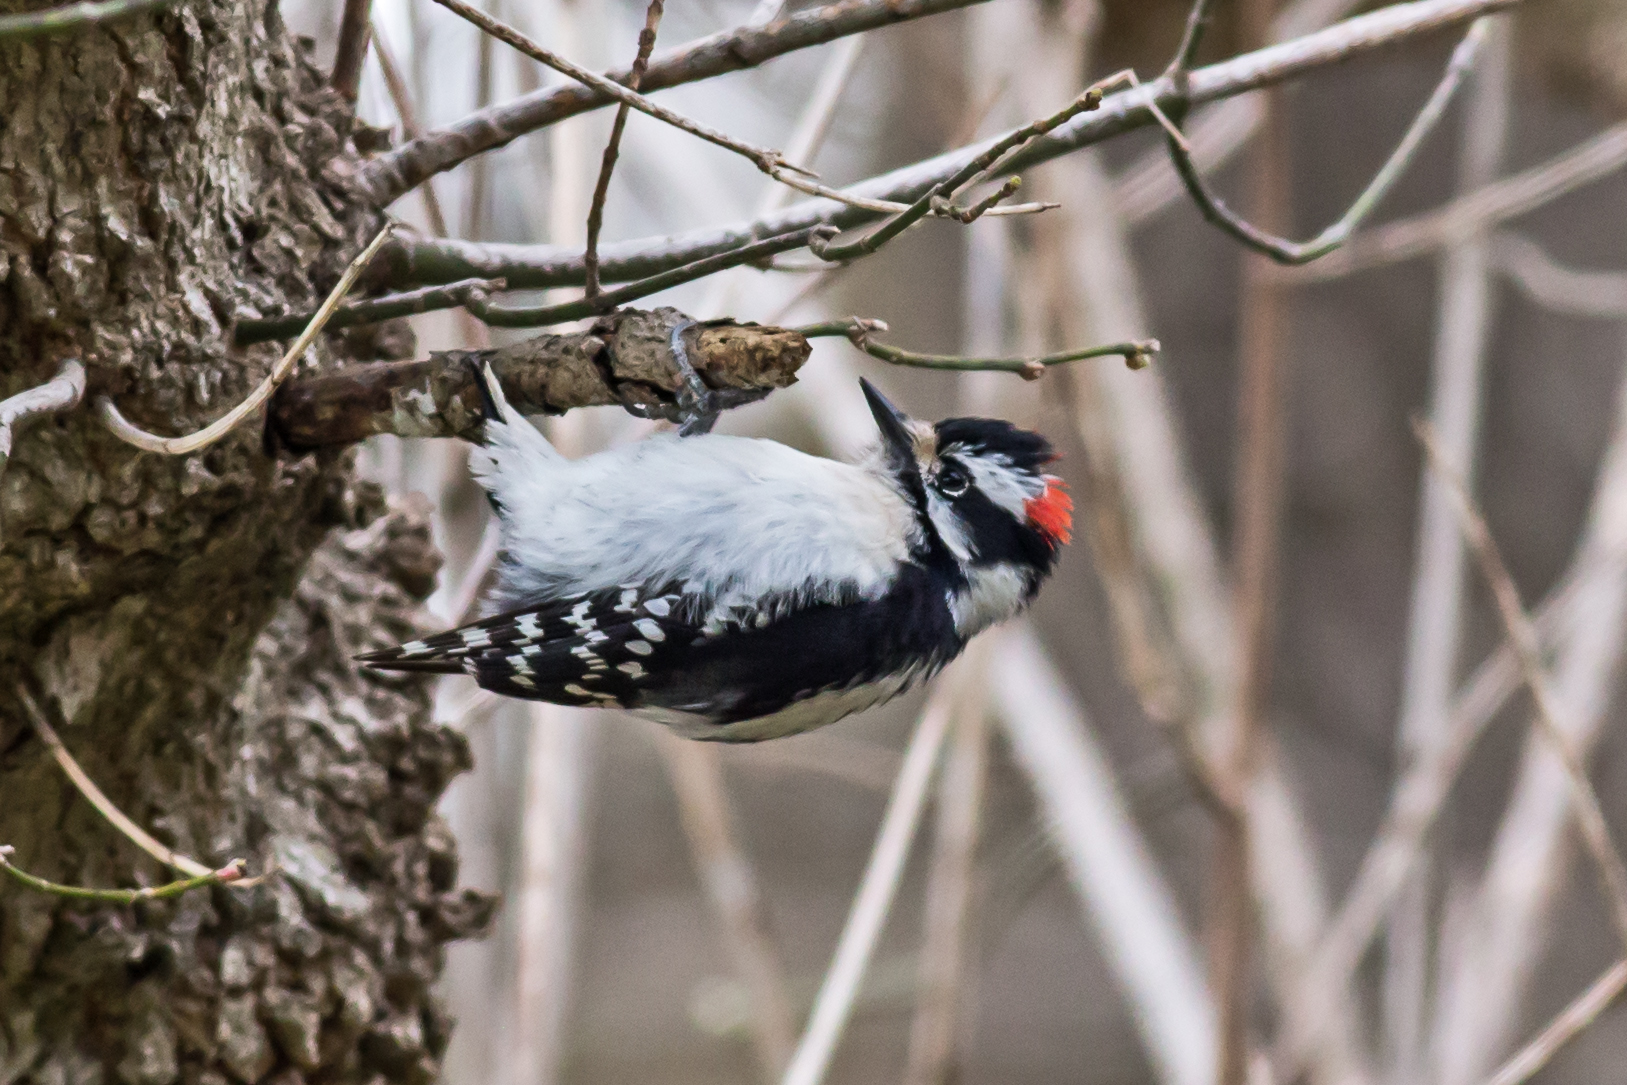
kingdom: Animalia
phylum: Chordata
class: Aves
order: Piciformes
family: Picidae
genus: Dryobates
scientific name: Dryobates pubescens
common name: Downy woodpecker
